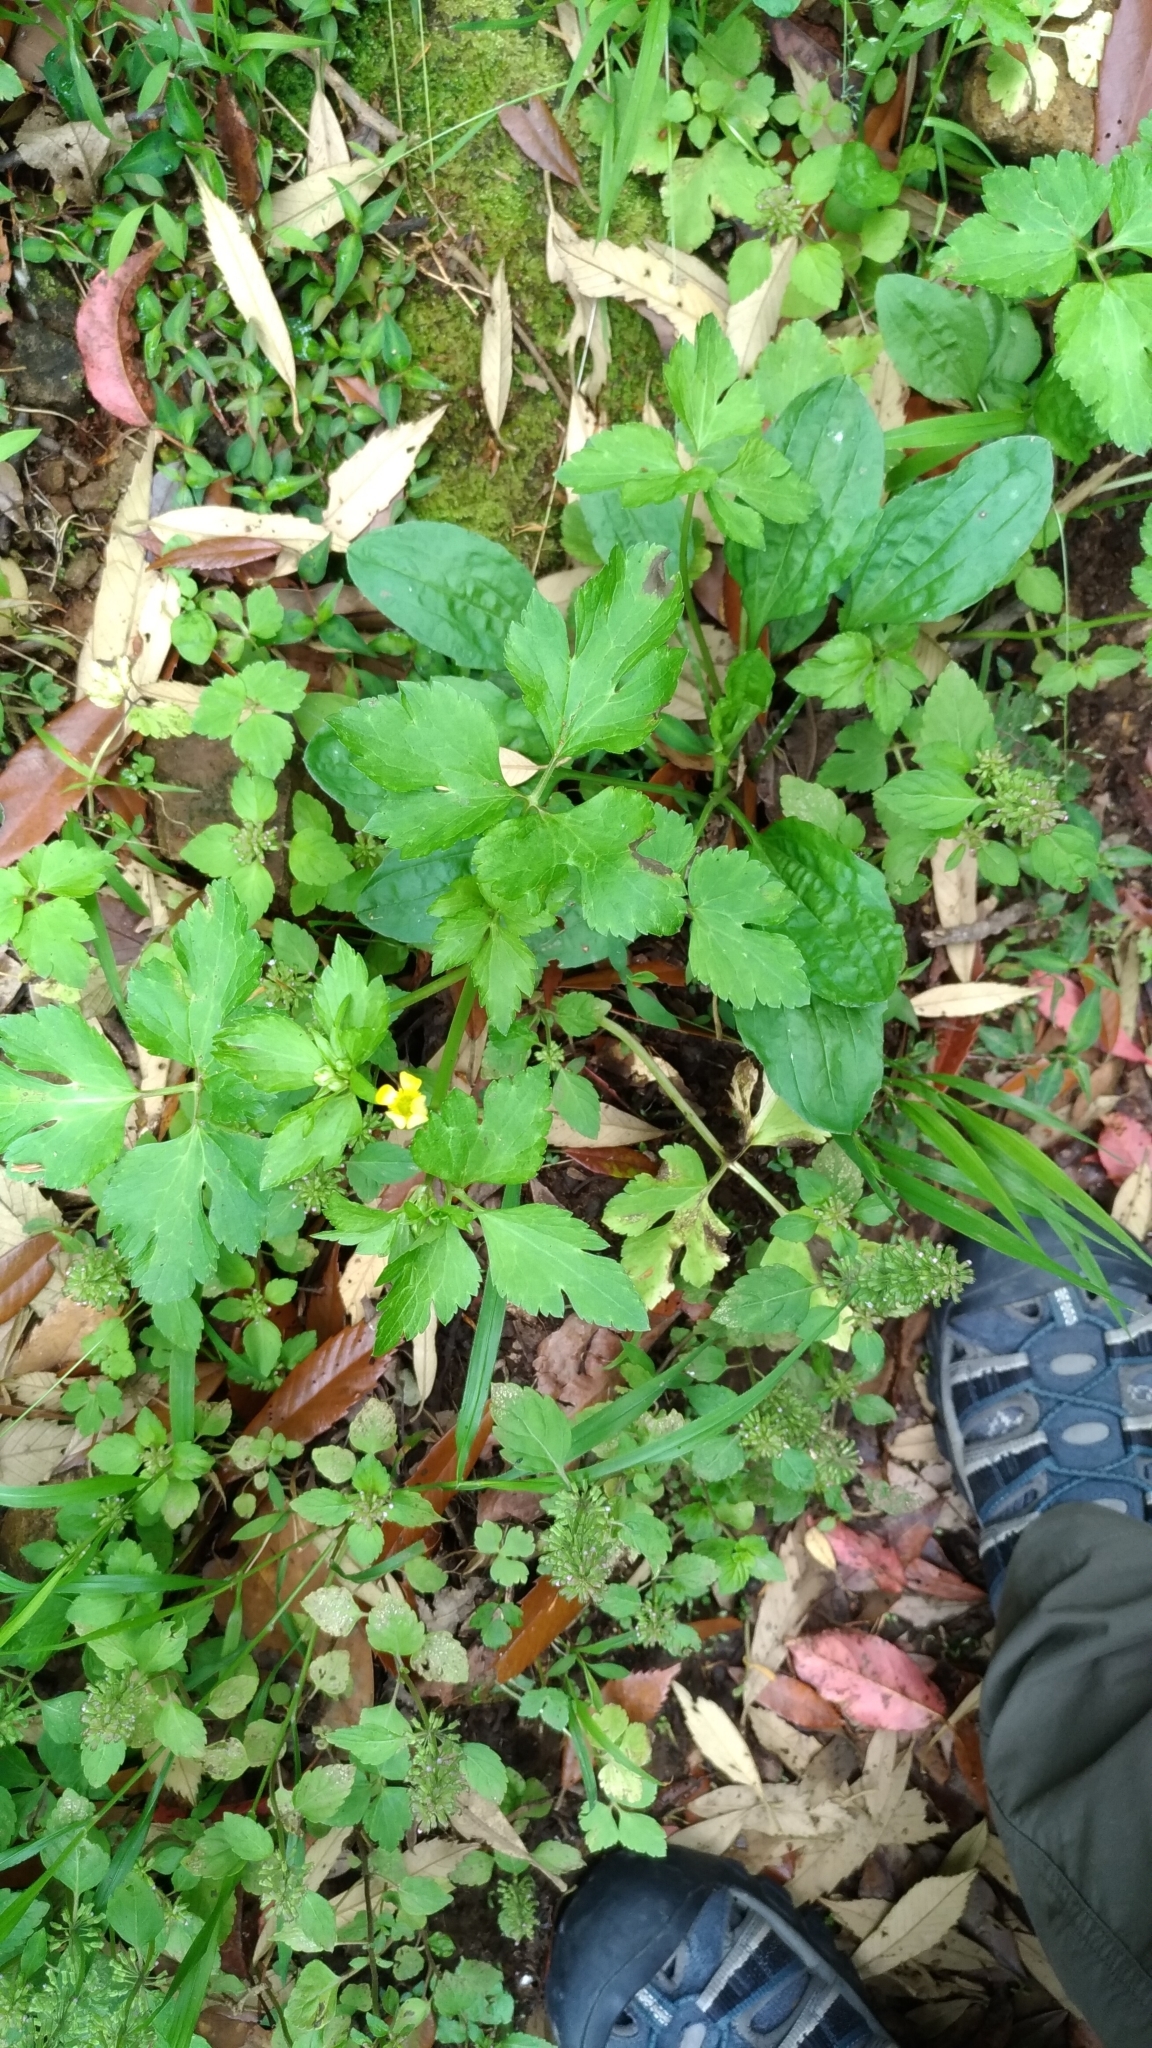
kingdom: Plantae
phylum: Tracheophyta
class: Magnoliopsida
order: Ranunculales
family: Ranunculaceae
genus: Ranunculus
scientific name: Ranunculus silerifolius
